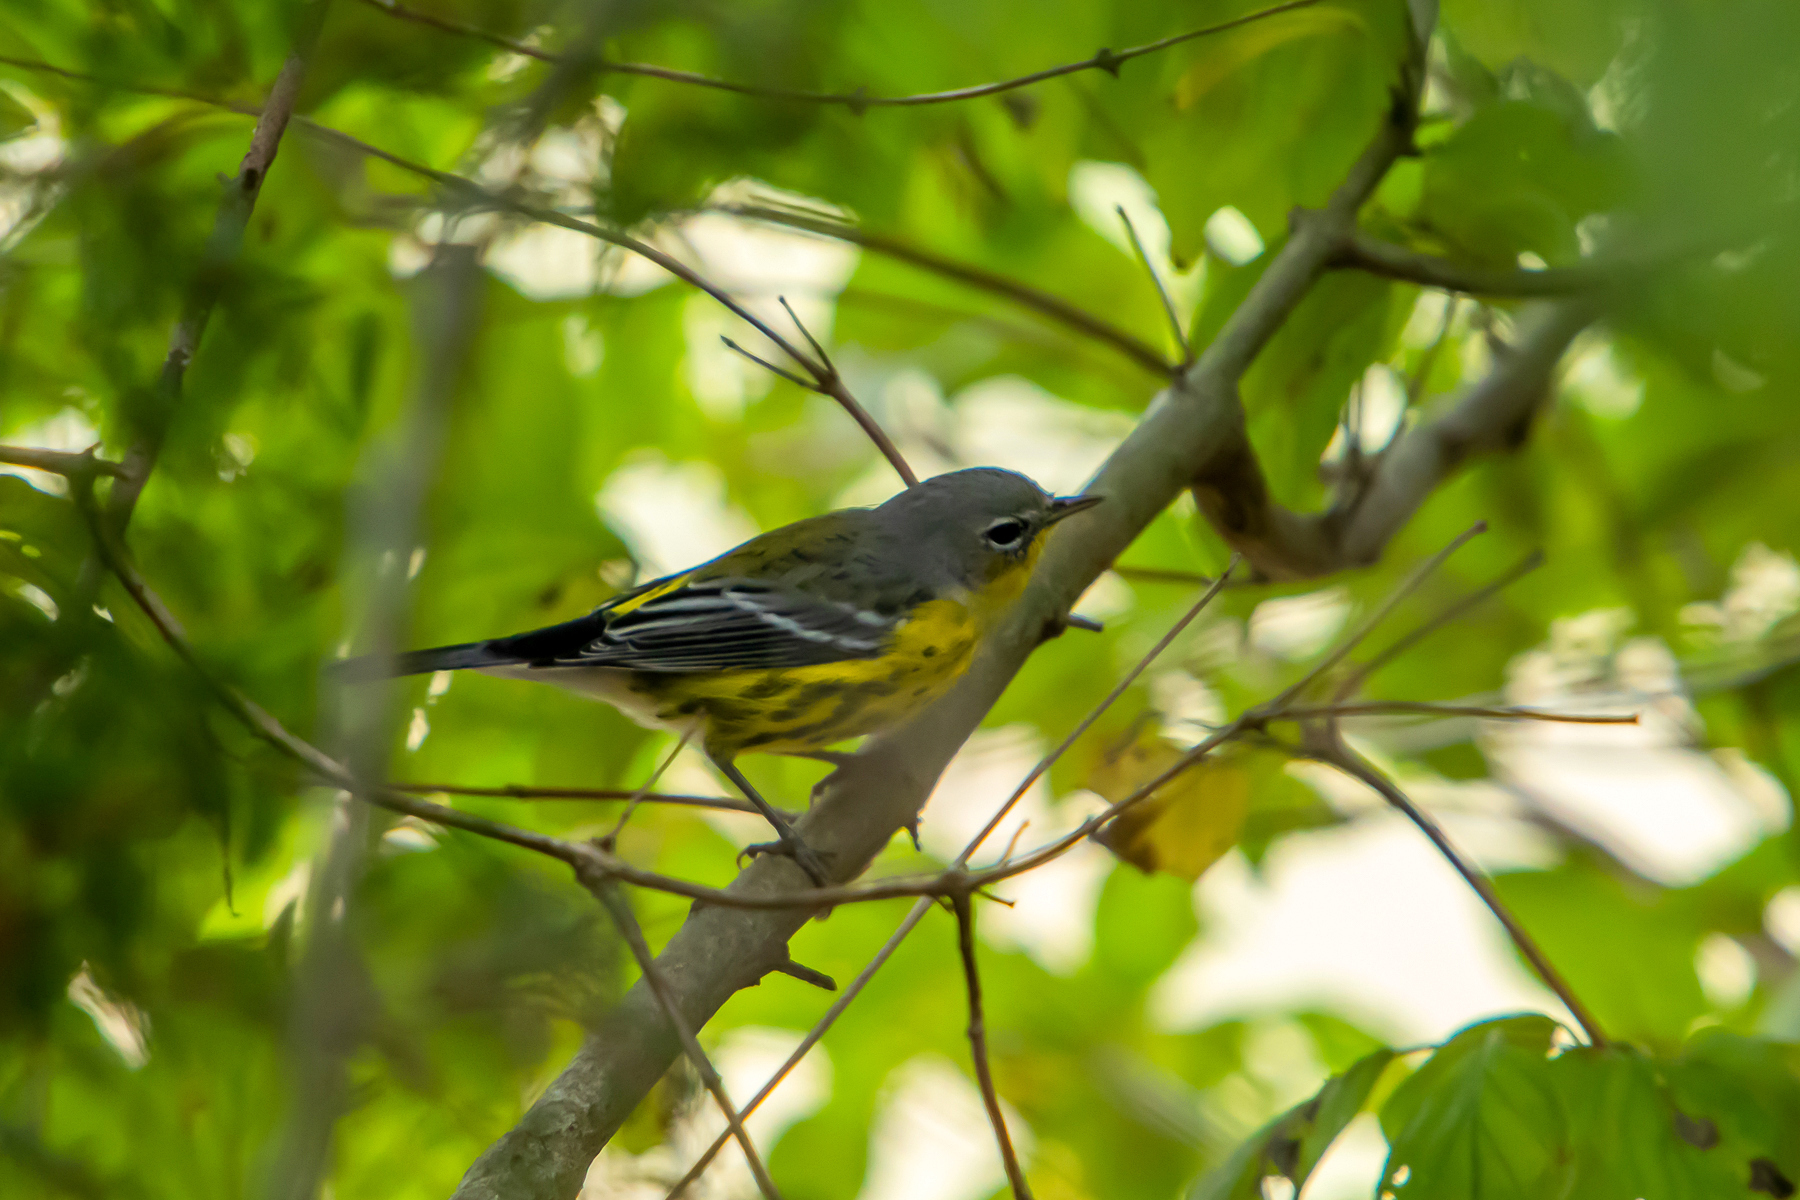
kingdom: Animalia
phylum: Chordata
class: Aves
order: Passeriformes
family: Parulidae
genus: Setophaga
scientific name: Setophaga magnolia
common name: Magnolia warbler
